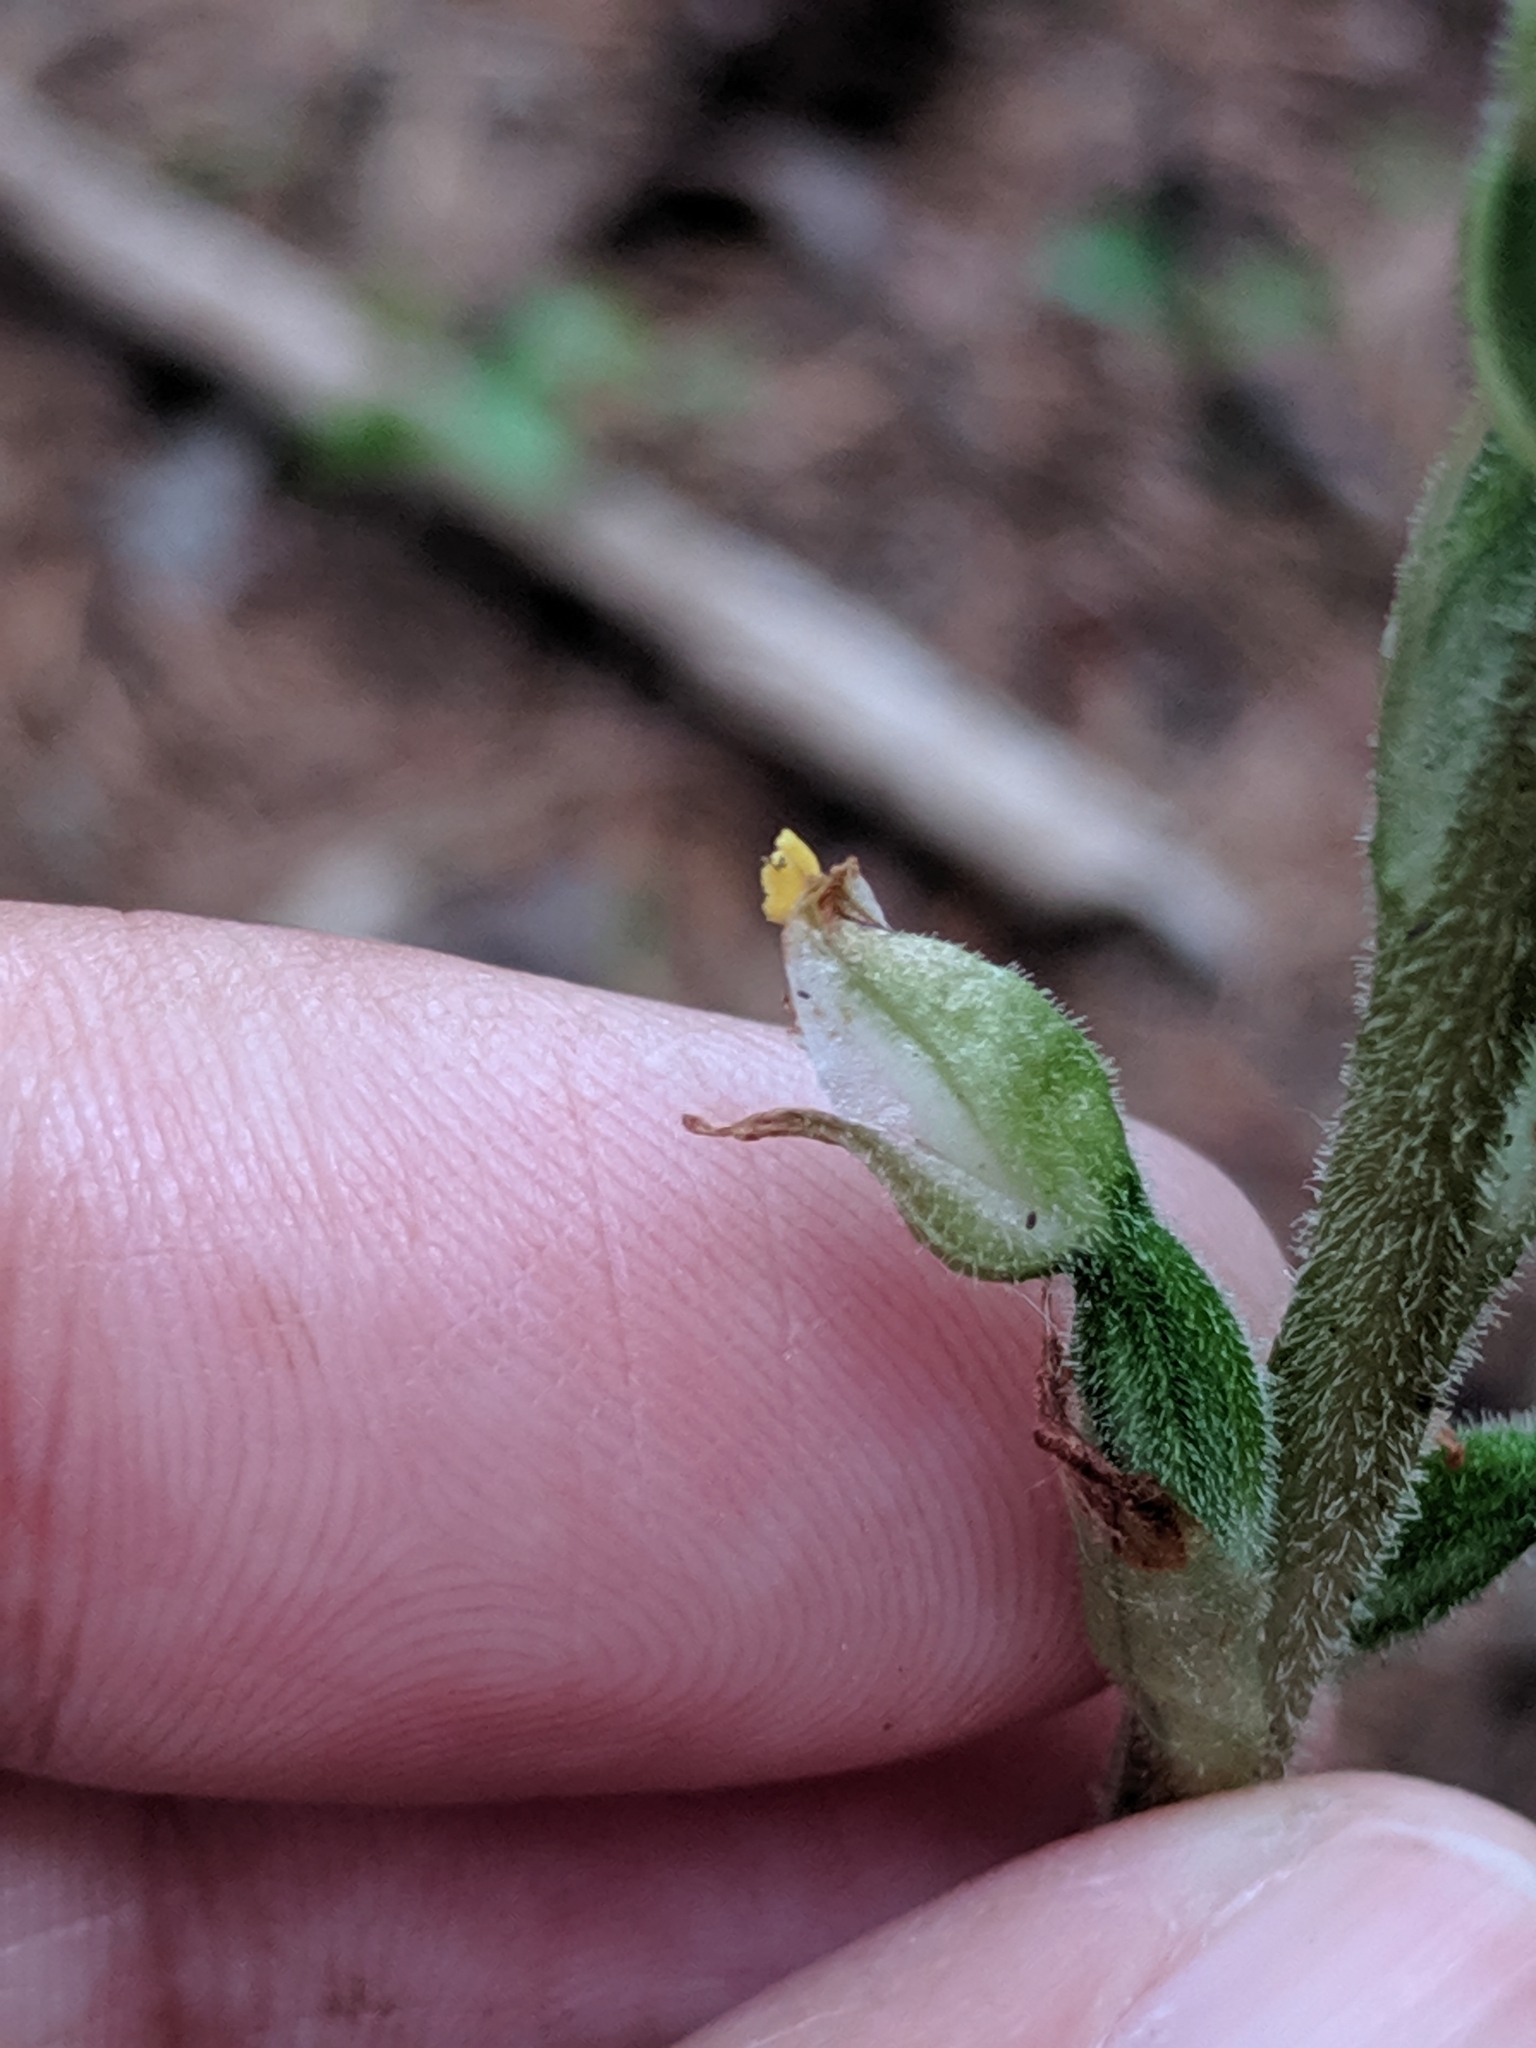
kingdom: Plantae
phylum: Tracheophyta
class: Liliopsida
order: Asparagales
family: Orchidaceae
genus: Goodyera
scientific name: Goodyera oblongifolia
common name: Giant rattlesnake-plantain
